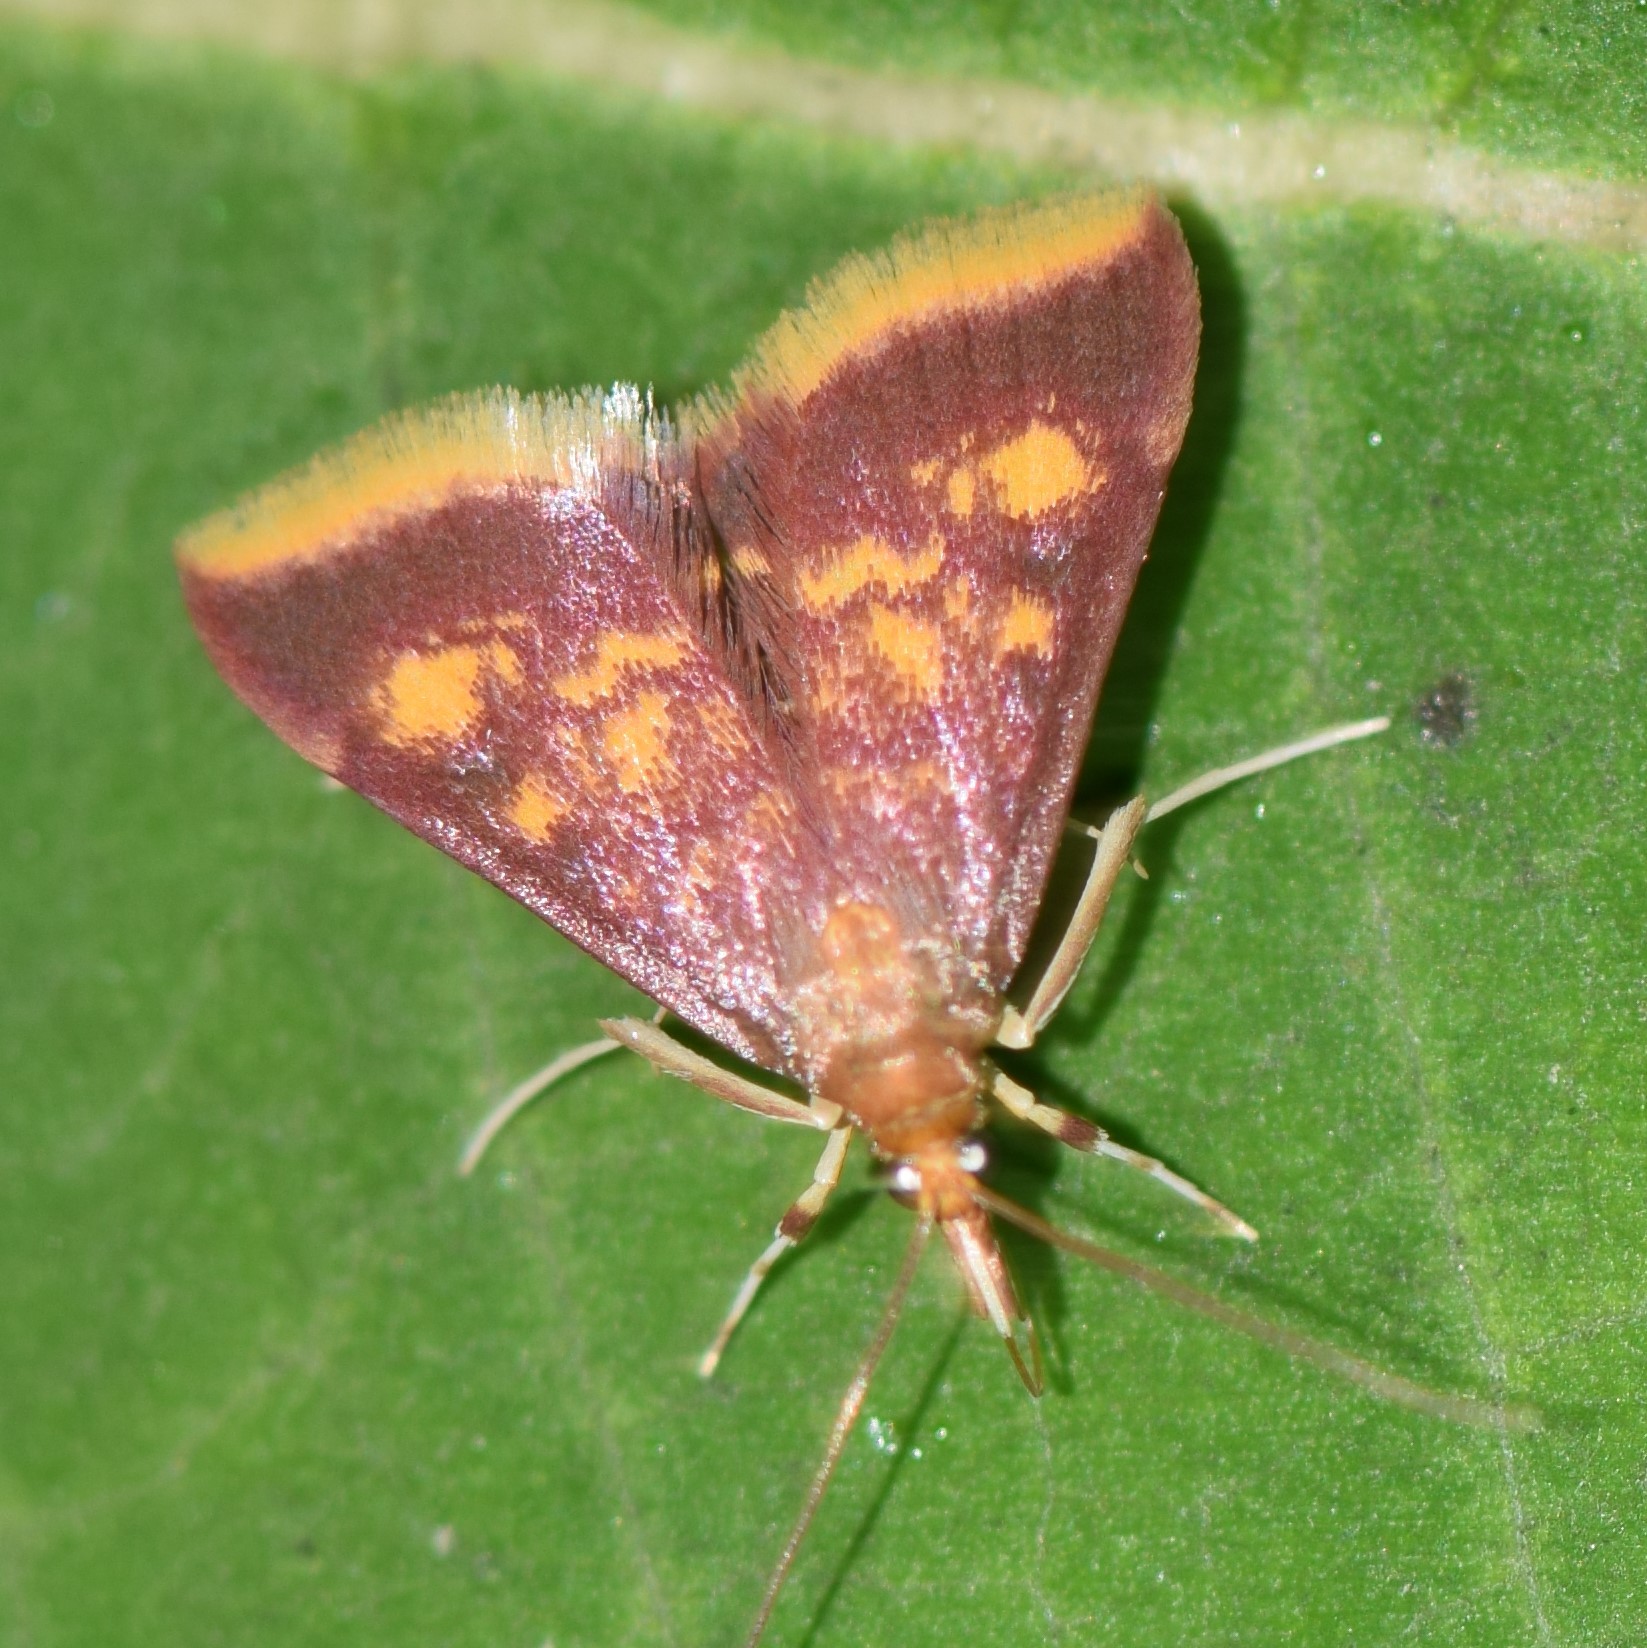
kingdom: Animalia
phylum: Arthropoda
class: Insecta
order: Lepidoptera
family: Crambidae
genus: Pyrausta
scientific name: Pyrausta acrionalis
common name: Mint-loving pyrausta moth
